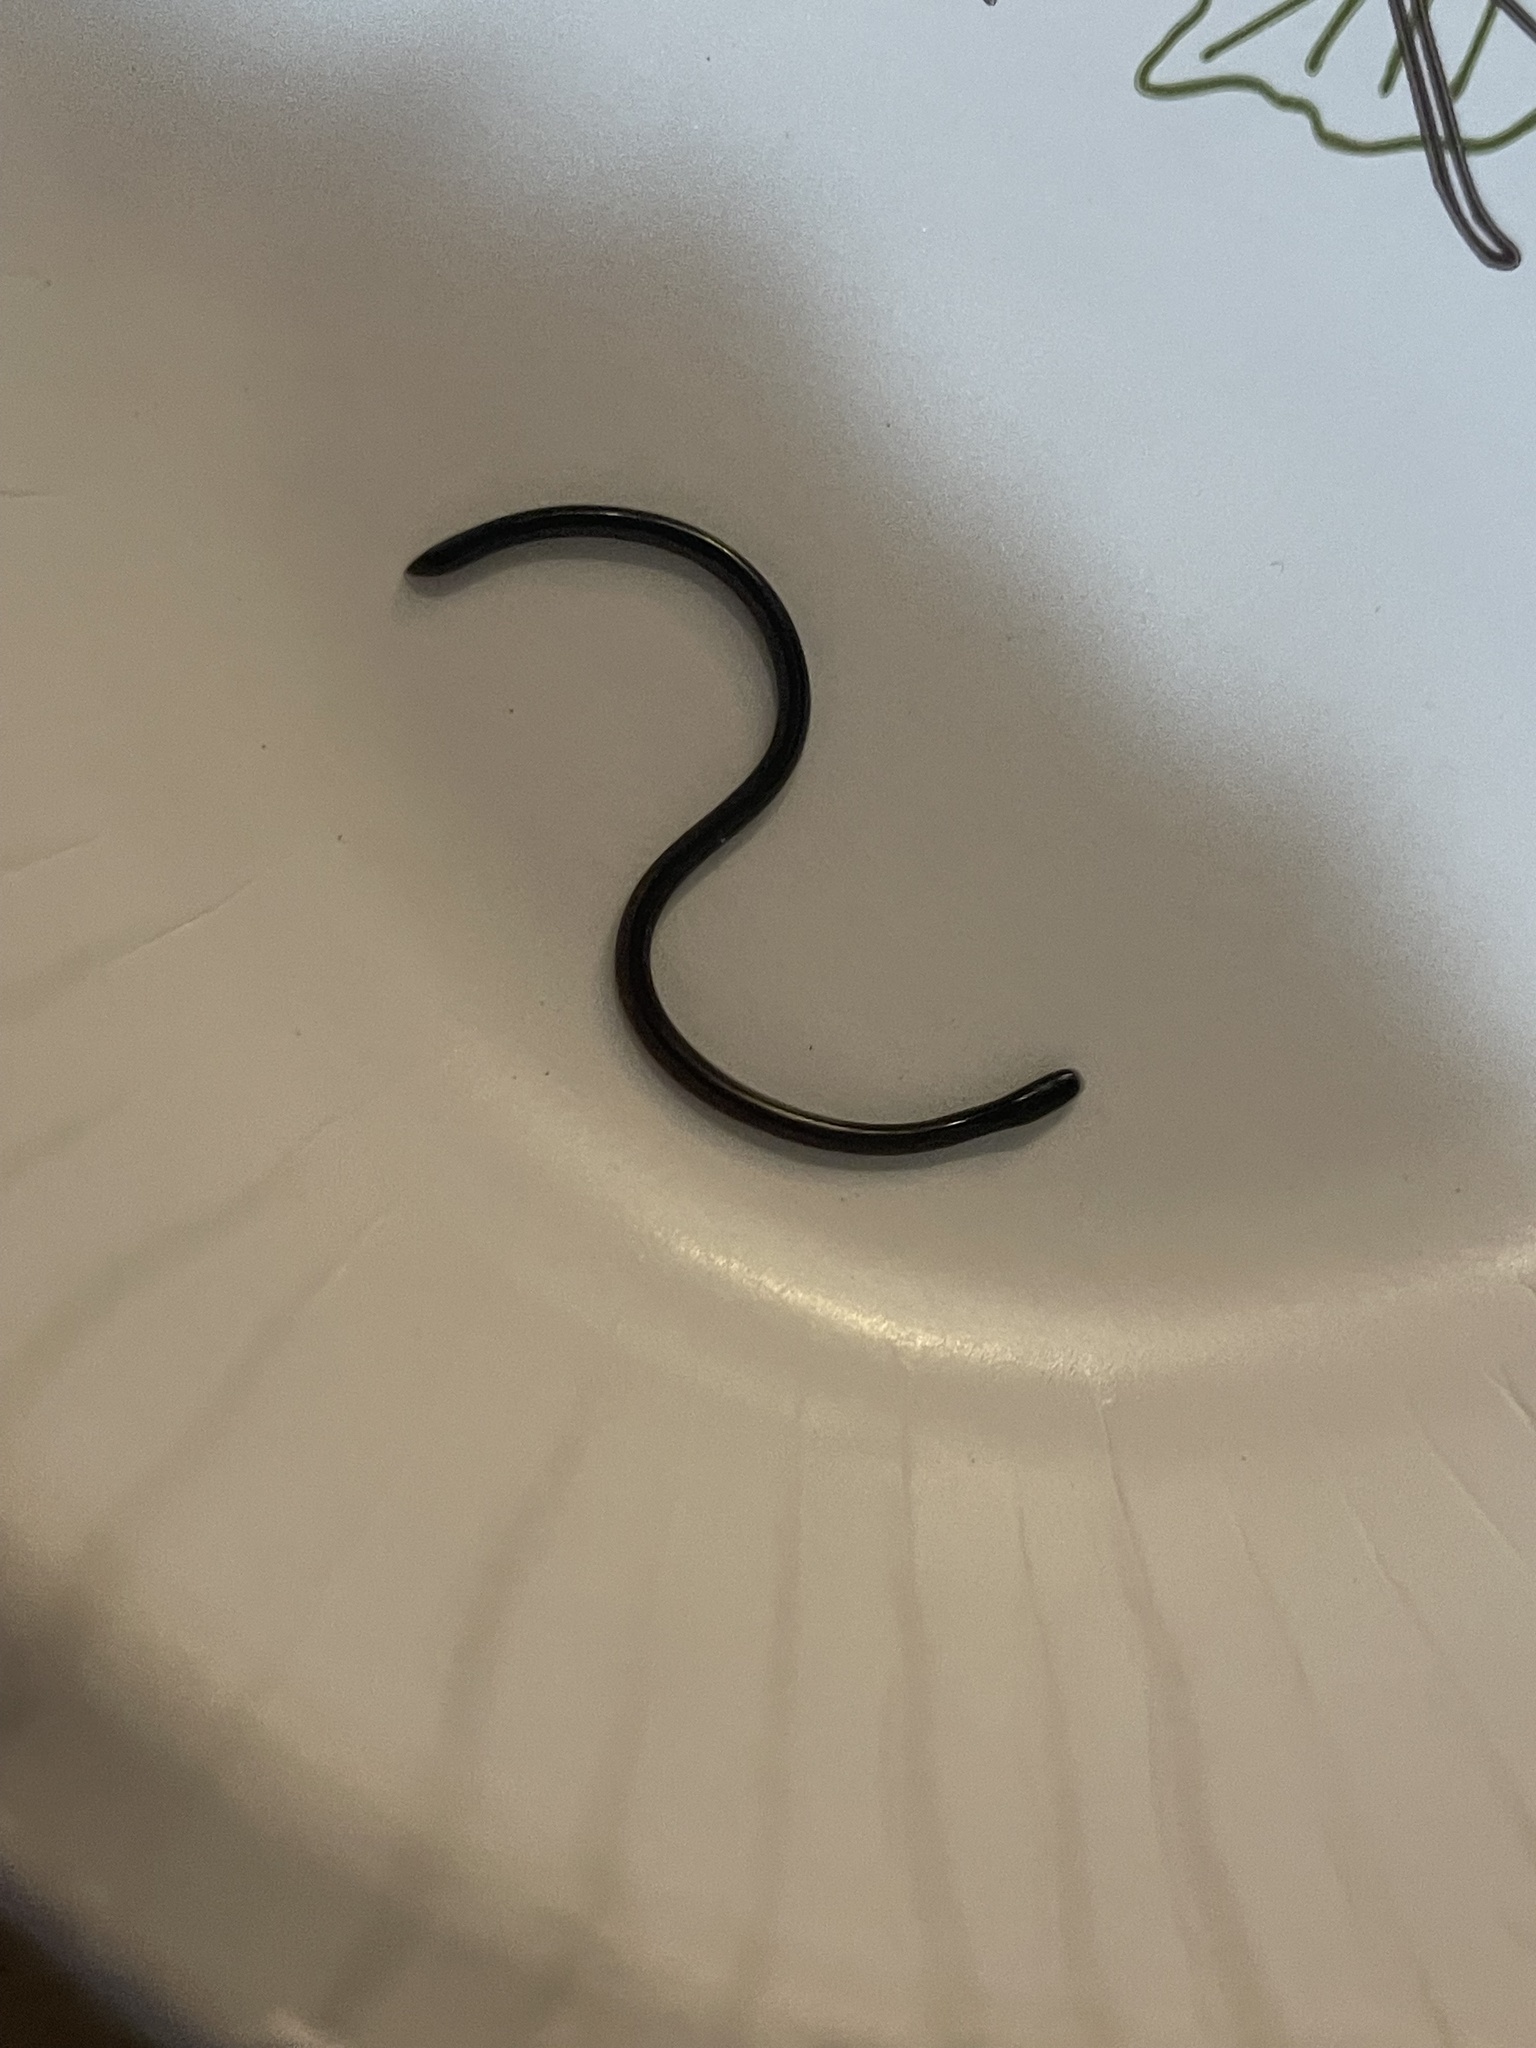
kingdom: Animalia
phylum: Chordata
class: Squamata
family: Typhlopidae
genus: Indotyphlops
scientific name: Indotyphlops braminus
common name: Brahminy blindsnake
